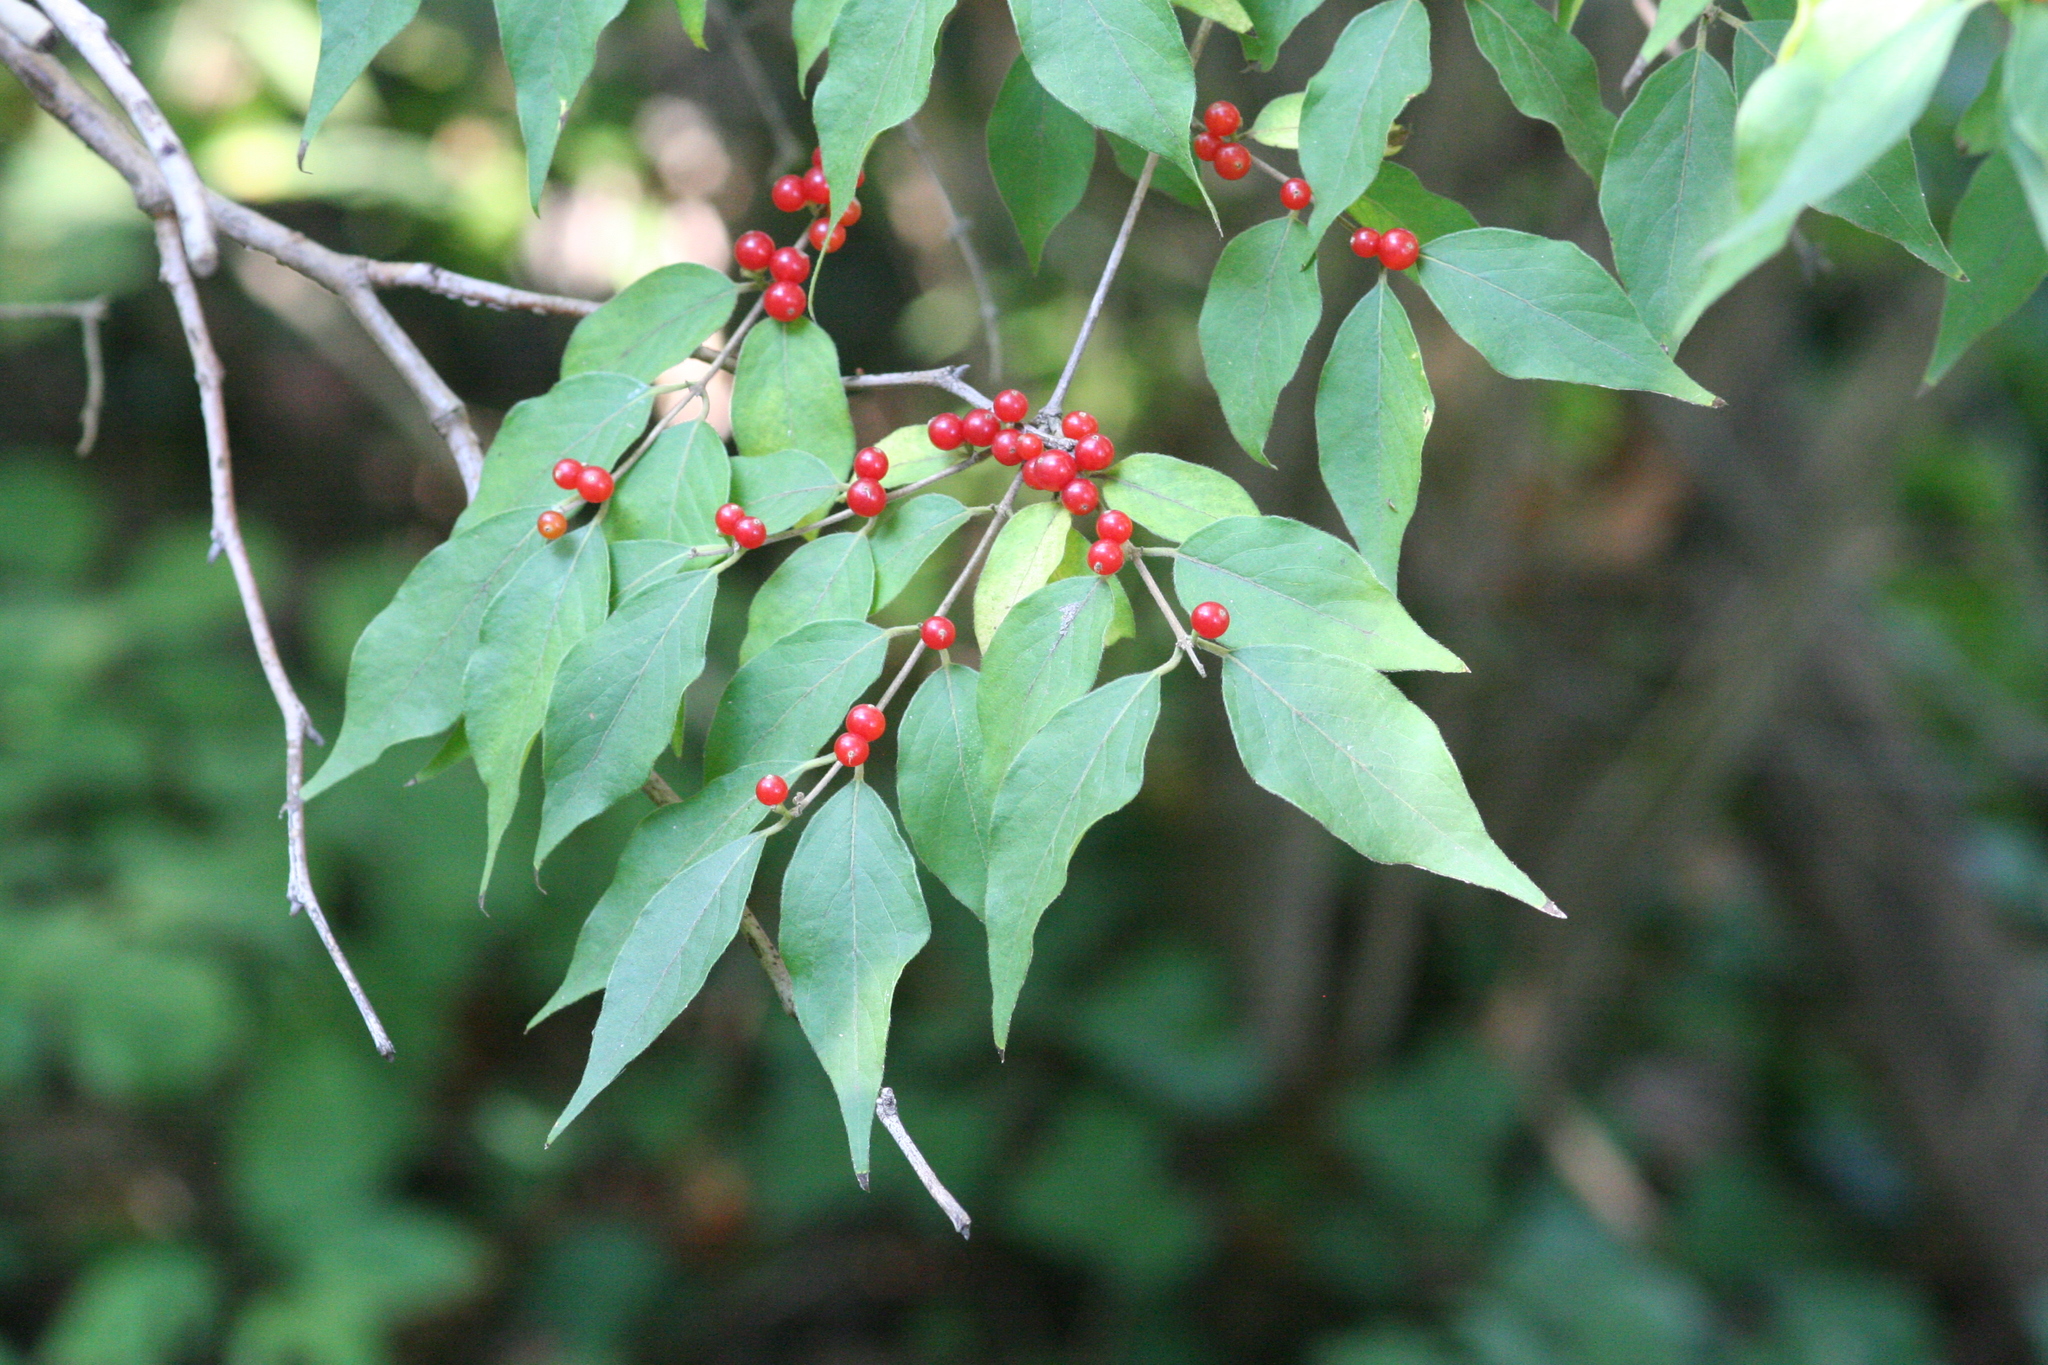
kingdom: Plantae
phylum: Tracheophyta
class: Magnoliopsida
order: Dipsacales
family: Caprifoliaceae
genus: Lonicera
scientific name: Lonicera maackii
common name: Amur honeysuckle
